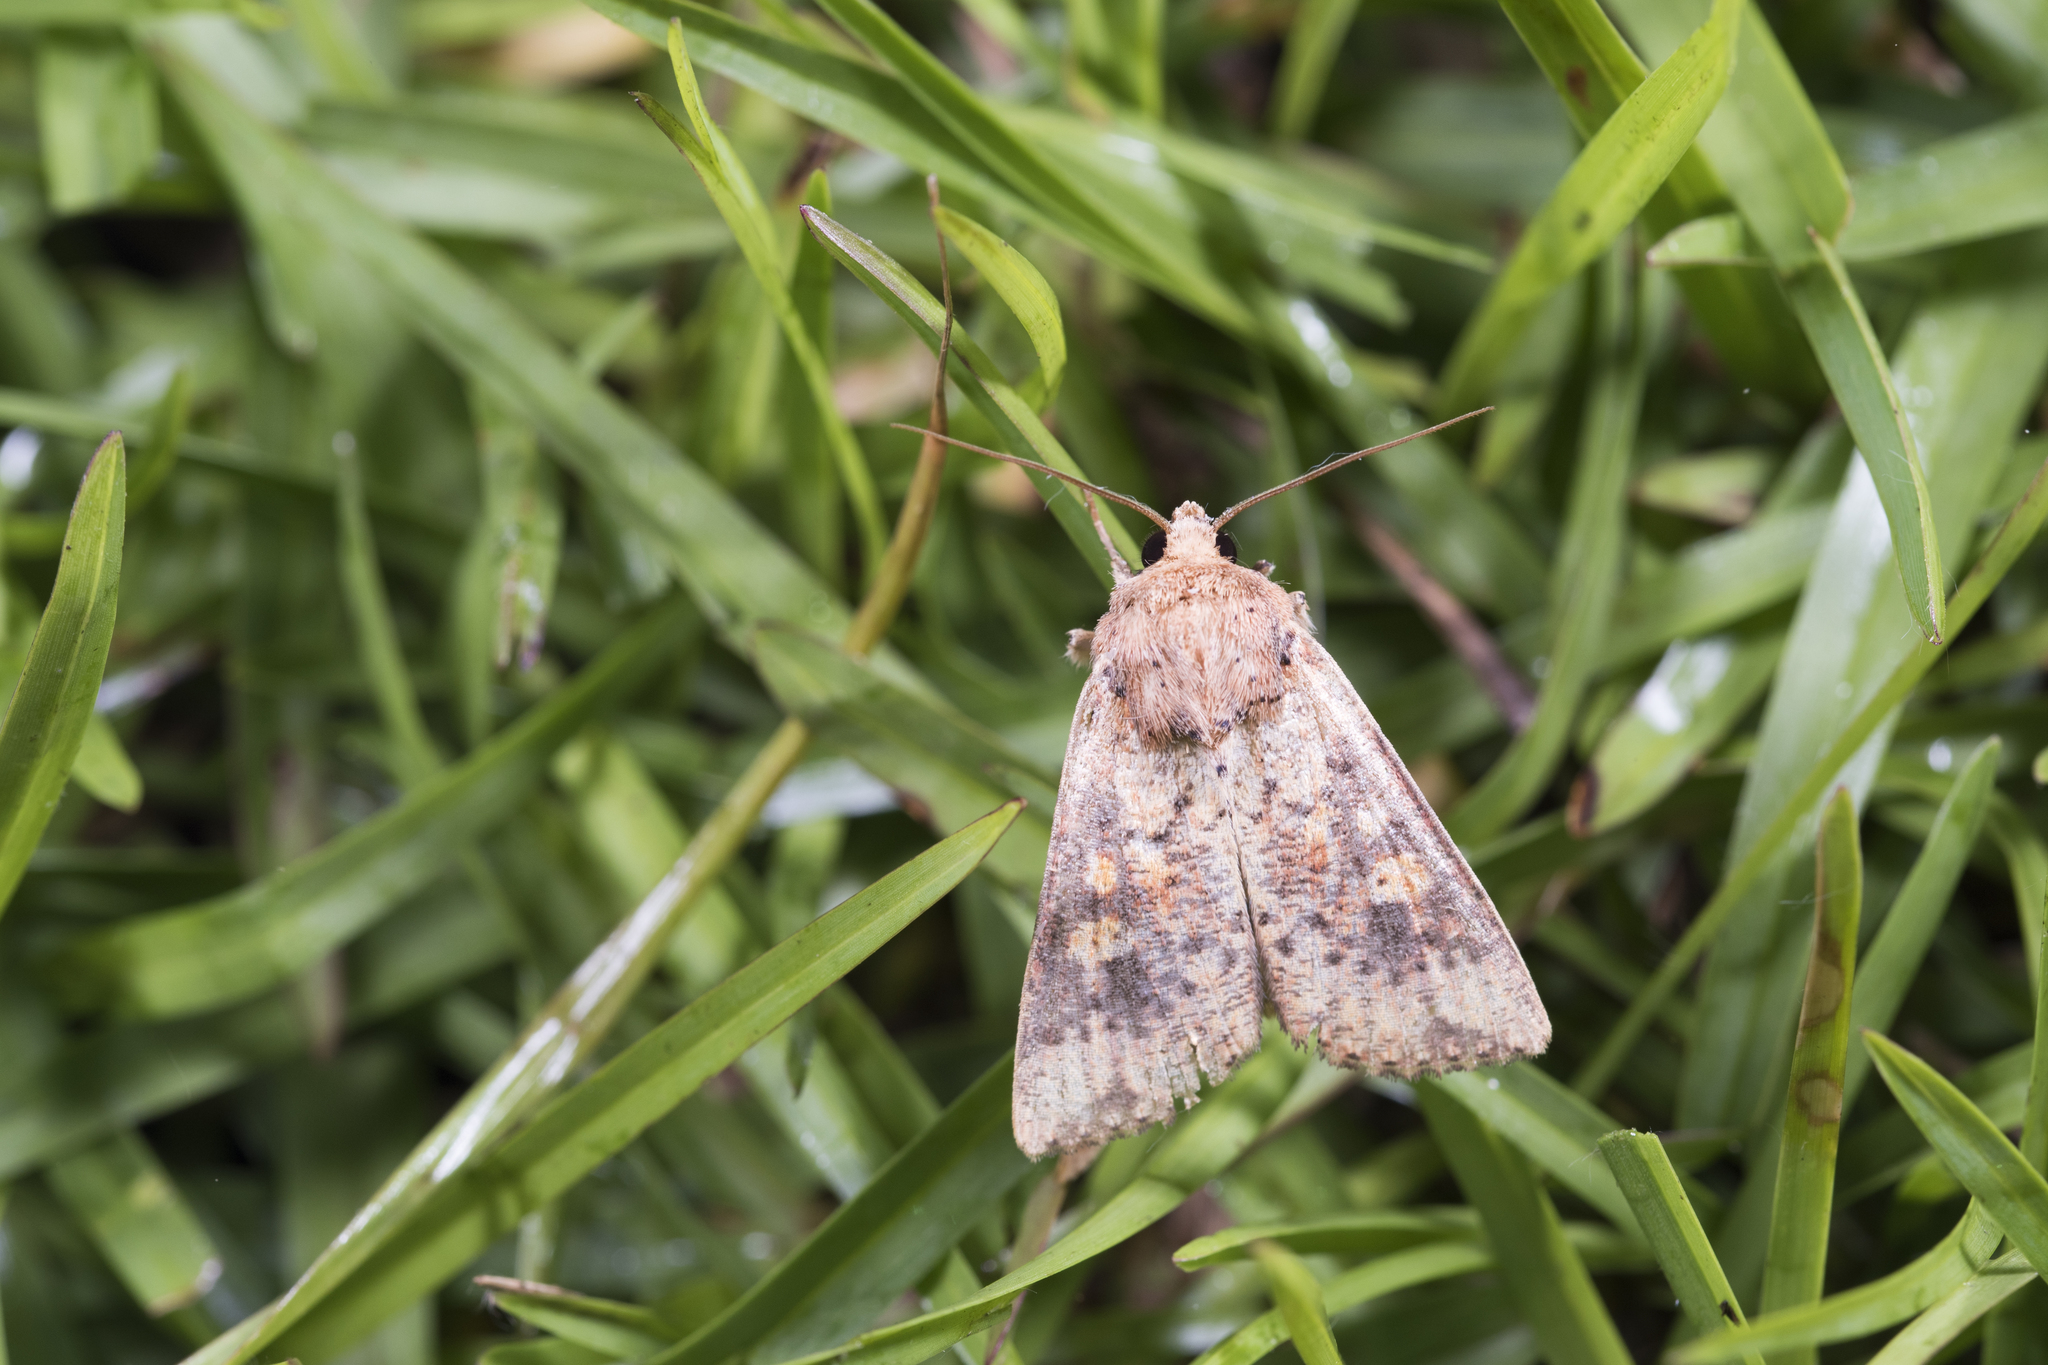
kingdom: Animalia
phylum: Arthropoda
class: Insecta
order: Lepidoptera
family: Noctuidae
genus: Mythimna
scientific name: Mythimna hannemanni
